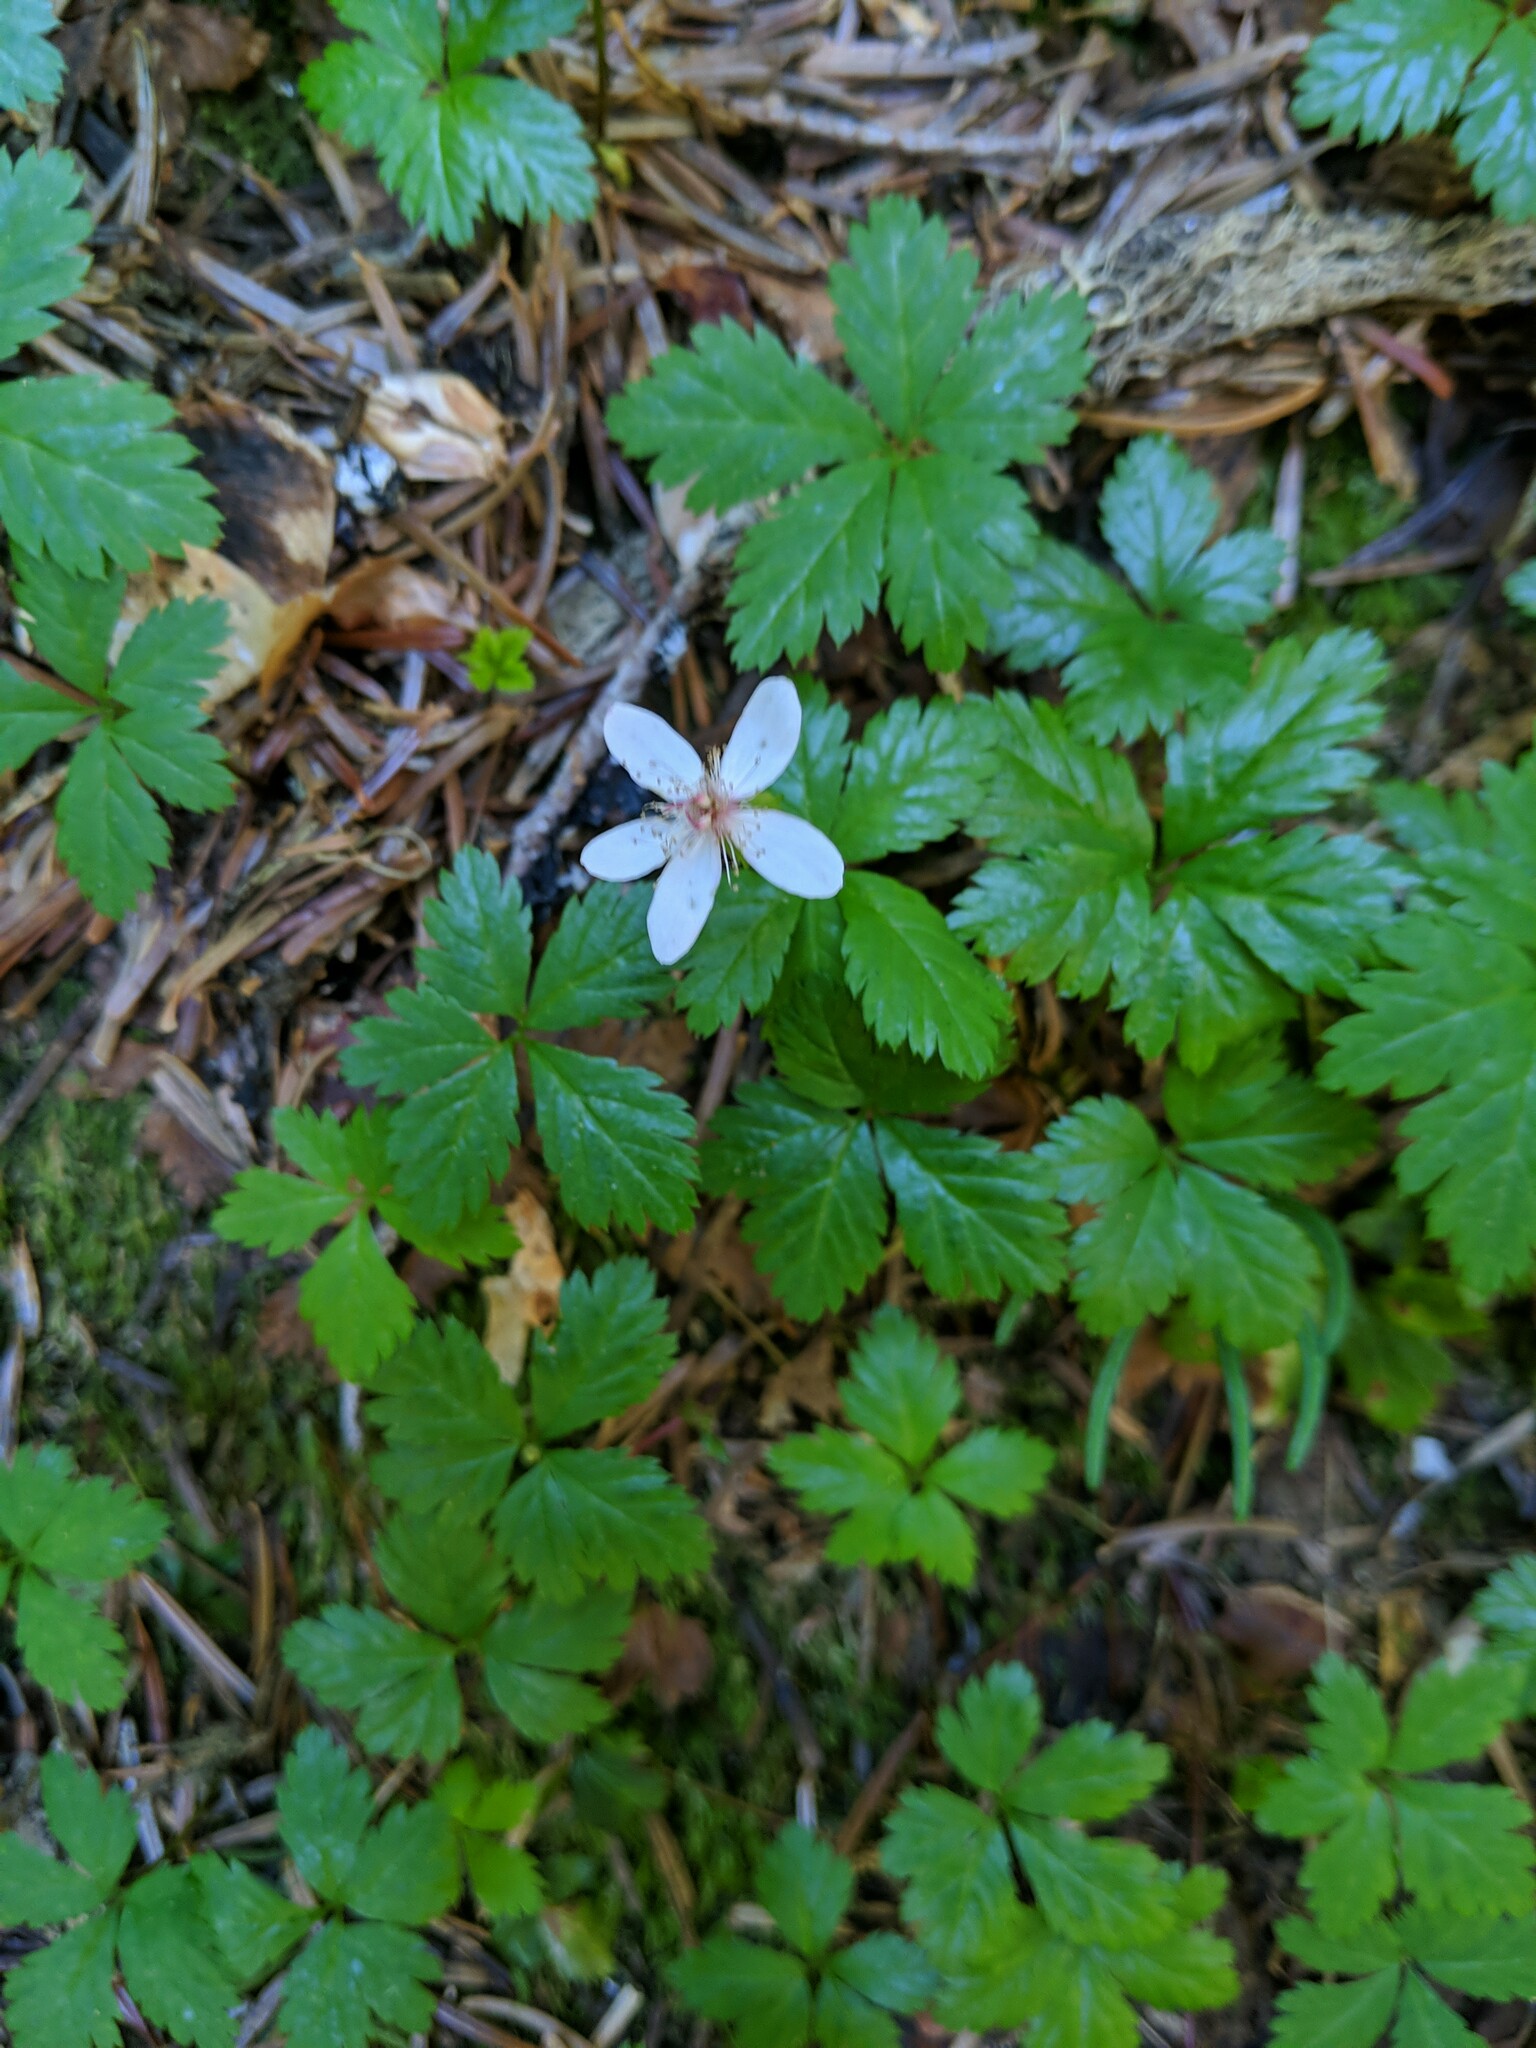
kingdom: Plantae
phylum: Tracheophyta
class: Magnoliopsida
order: Rosales
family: Rosaceae
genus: Rubus
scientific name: Rubus pedatus
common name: Creeping raspberry
